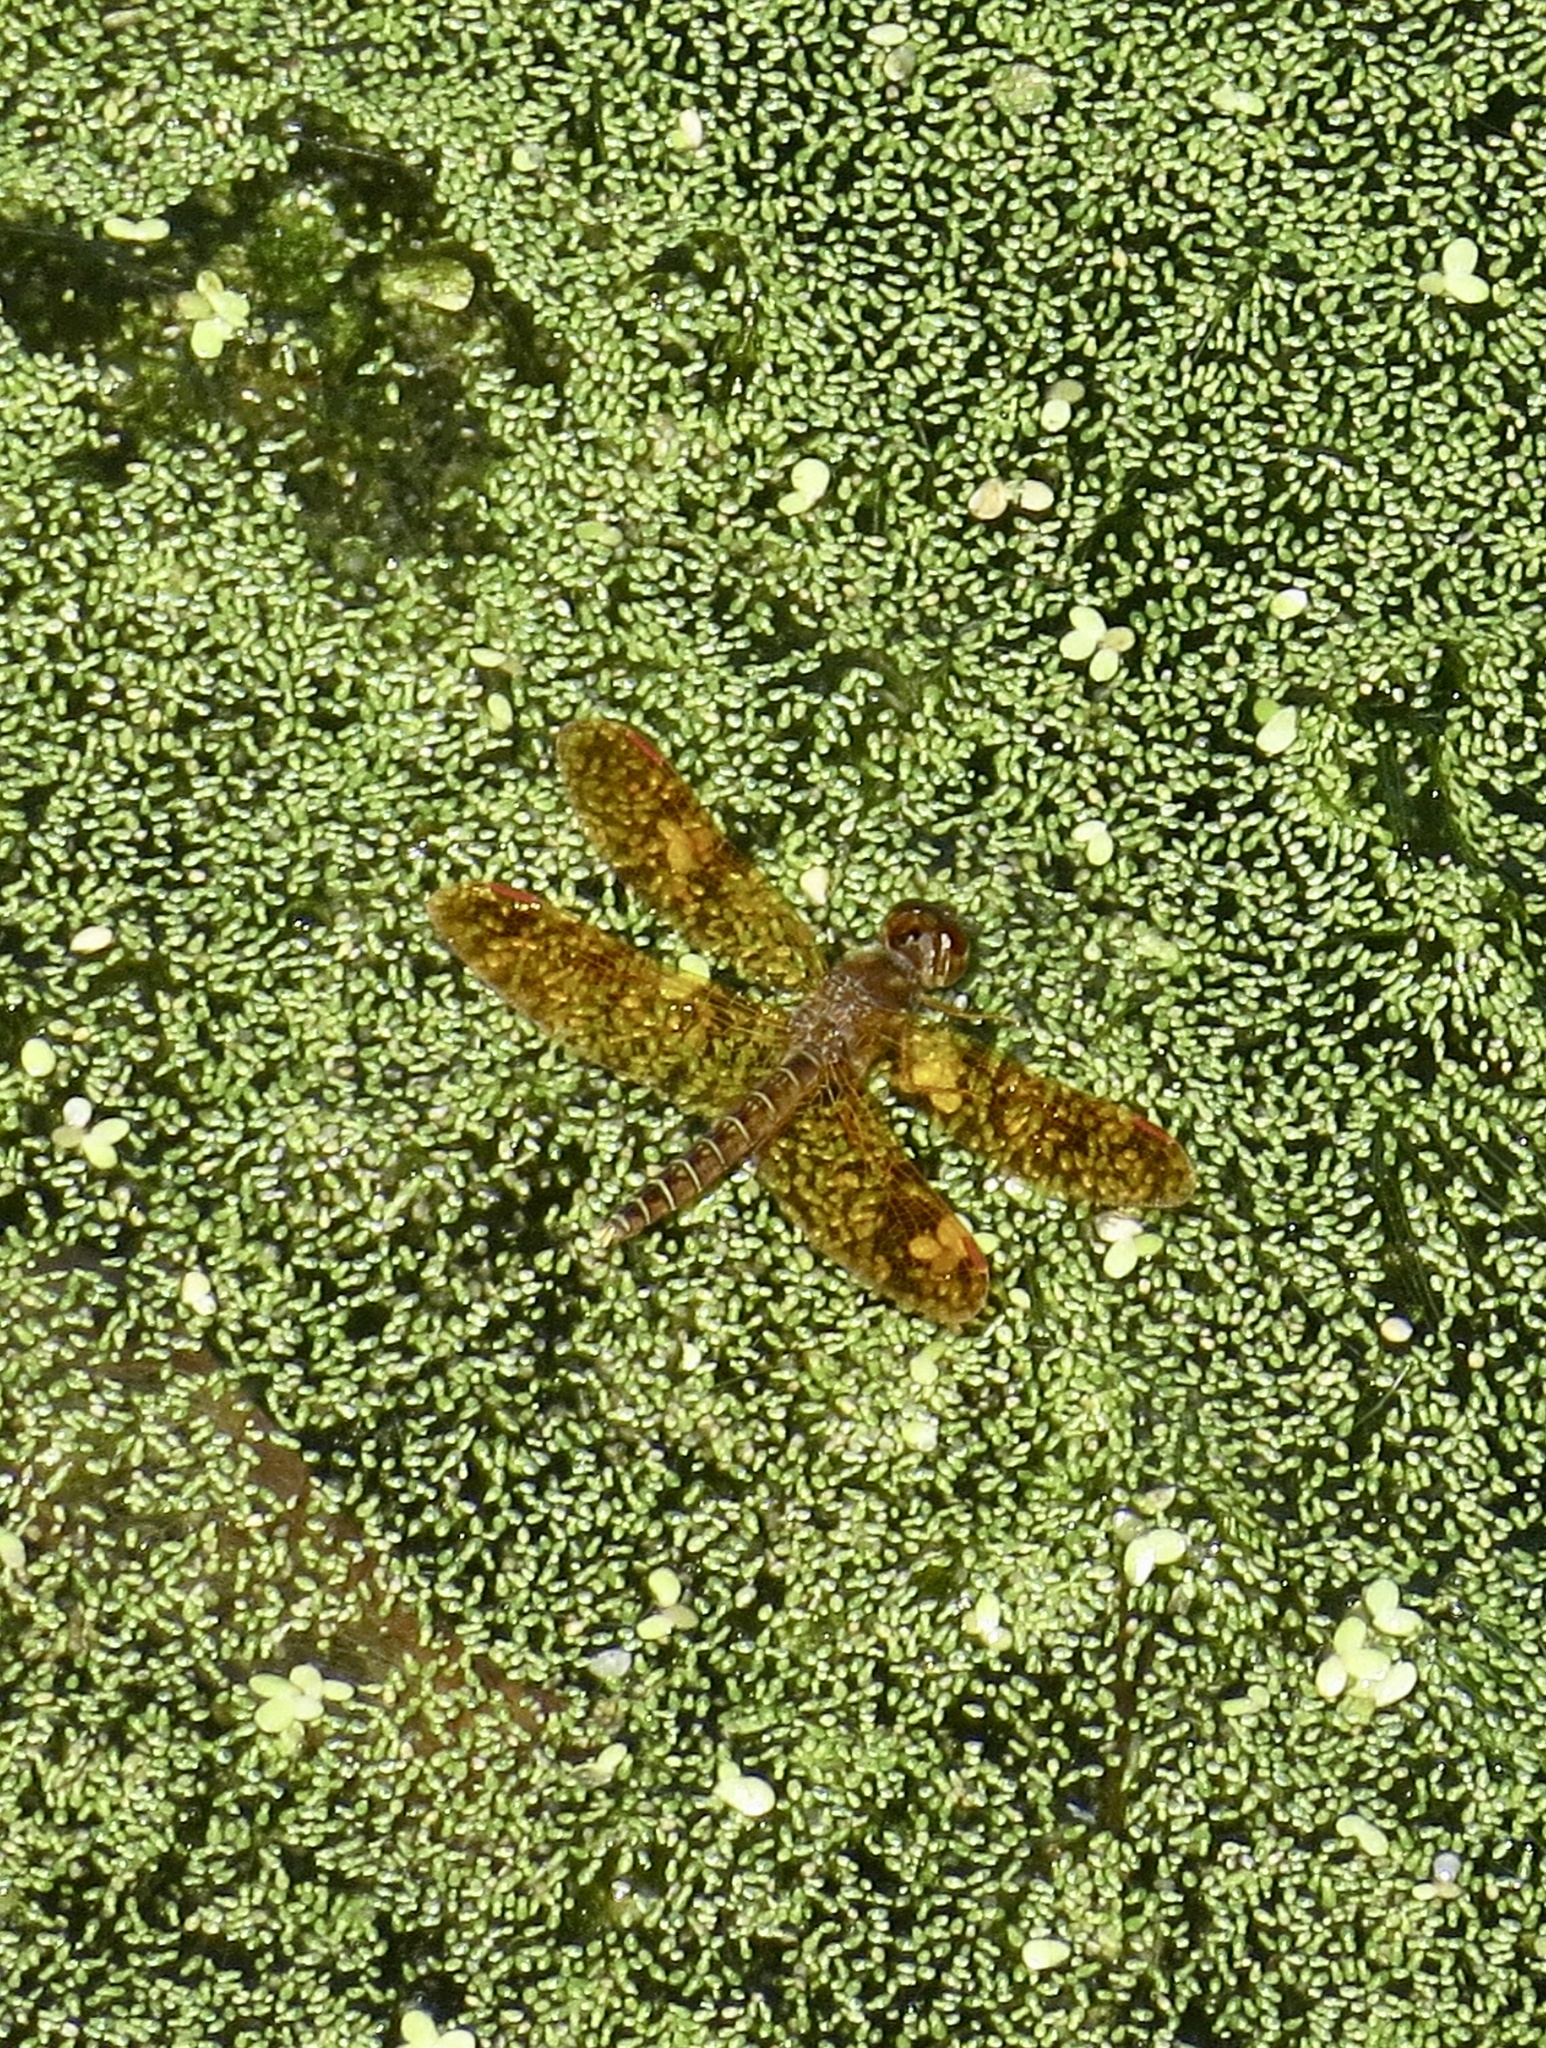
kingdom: Animalia
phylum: Arthropoda
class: Insecta
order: Odonata
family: Libellulidae
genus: Perithemis
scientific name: Perithemis tenera
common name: Eastern amberwing
